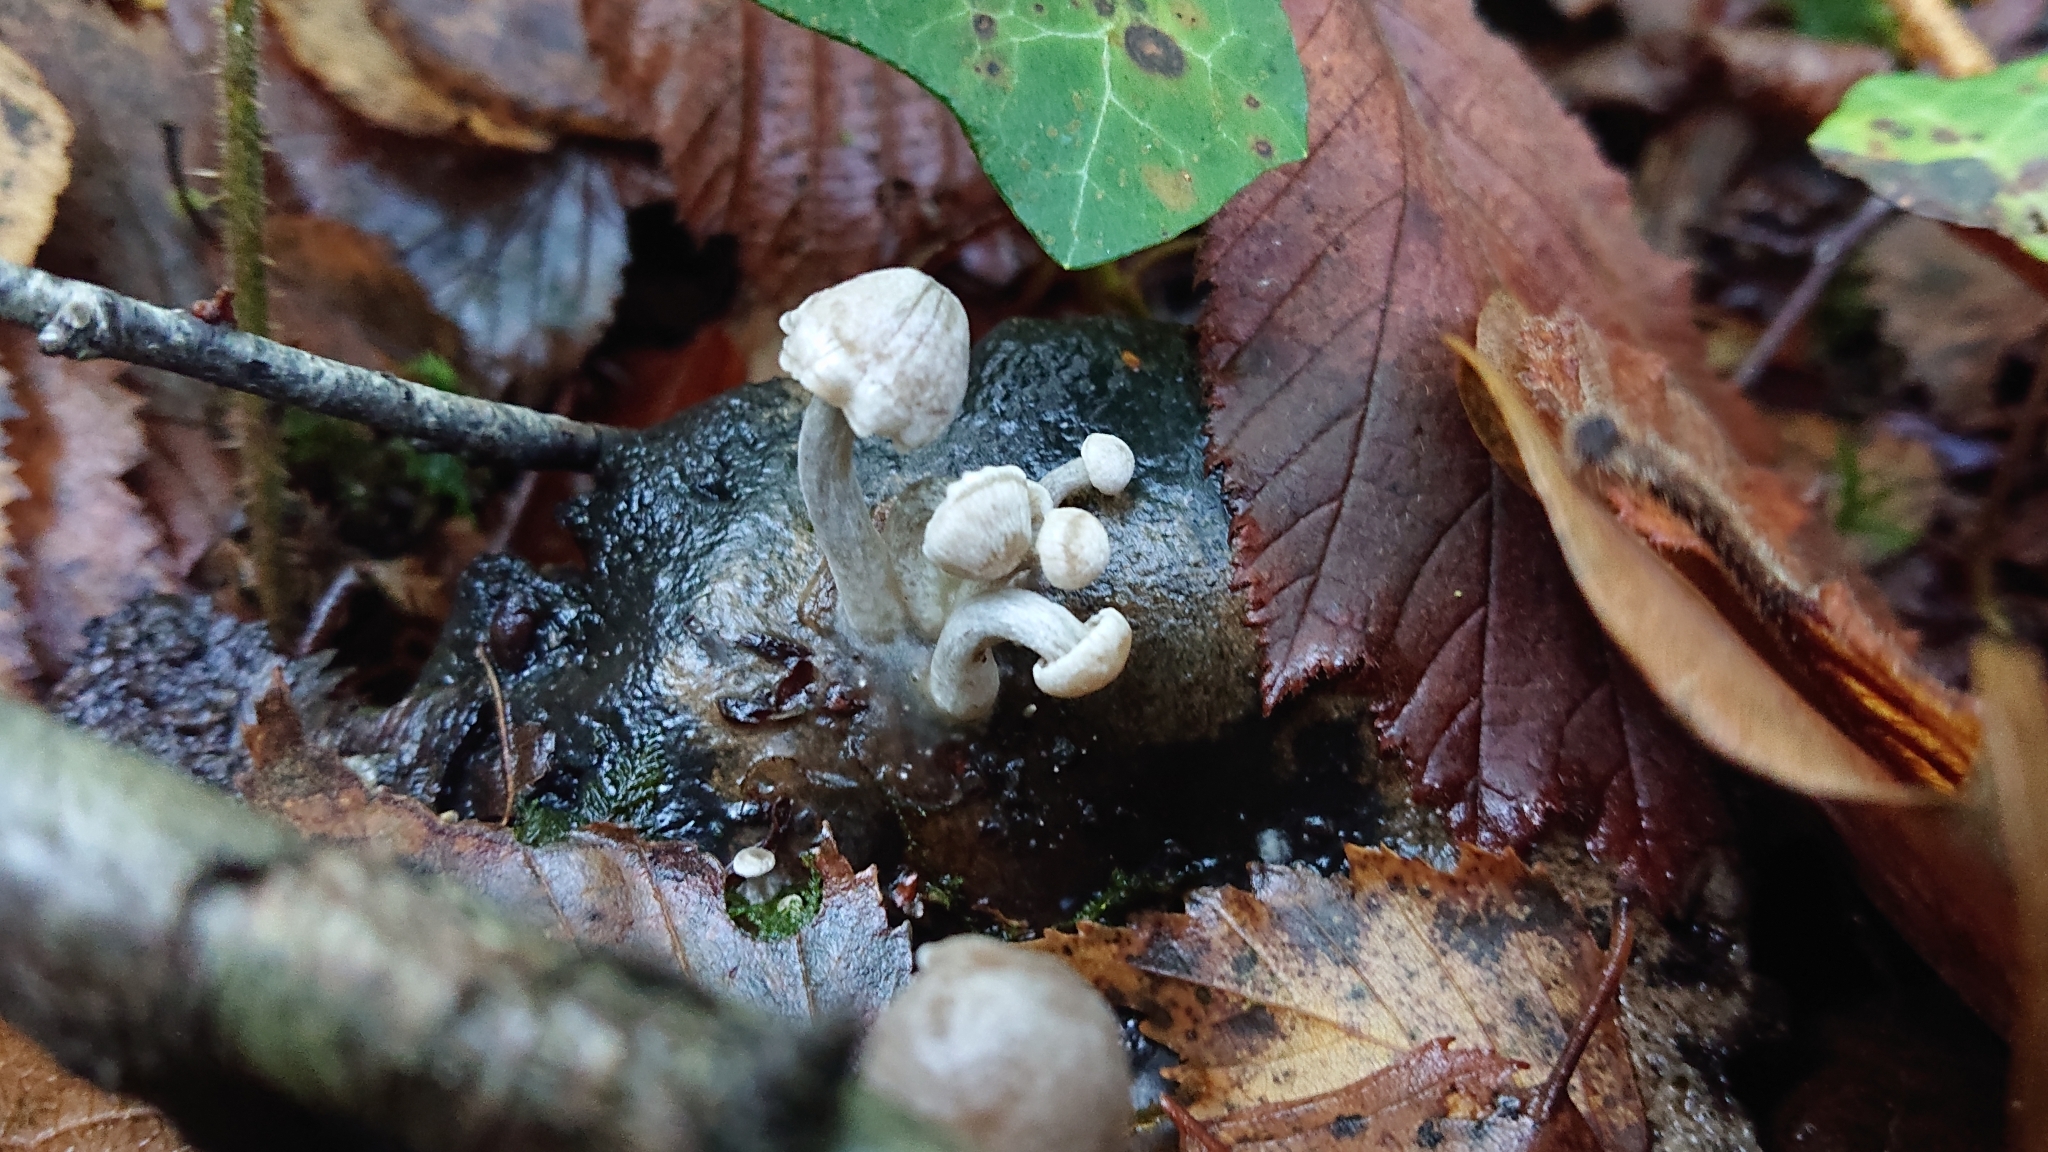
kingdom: Fungi
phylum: Basidiomycota
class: Agaricomycetes
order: Agaricales
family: Lyophyllaceae
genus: Asterophora
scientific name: Asterophora parasitica
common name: Silky piggyback
